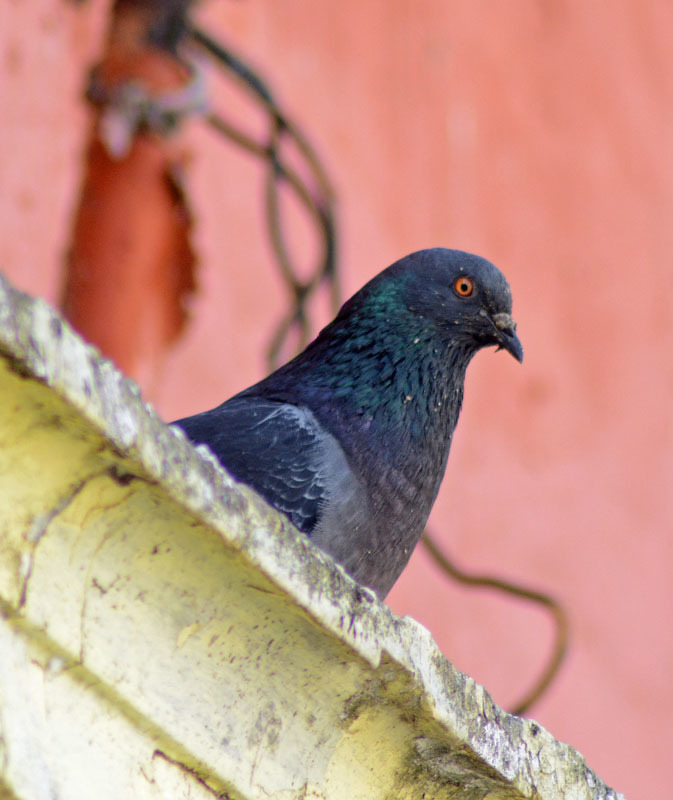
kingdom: Animalia
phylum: Chordata
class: Aves
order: Columbiformes
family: Columbidae
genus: Columba
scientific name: Columba livia
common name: Rock pigeon
